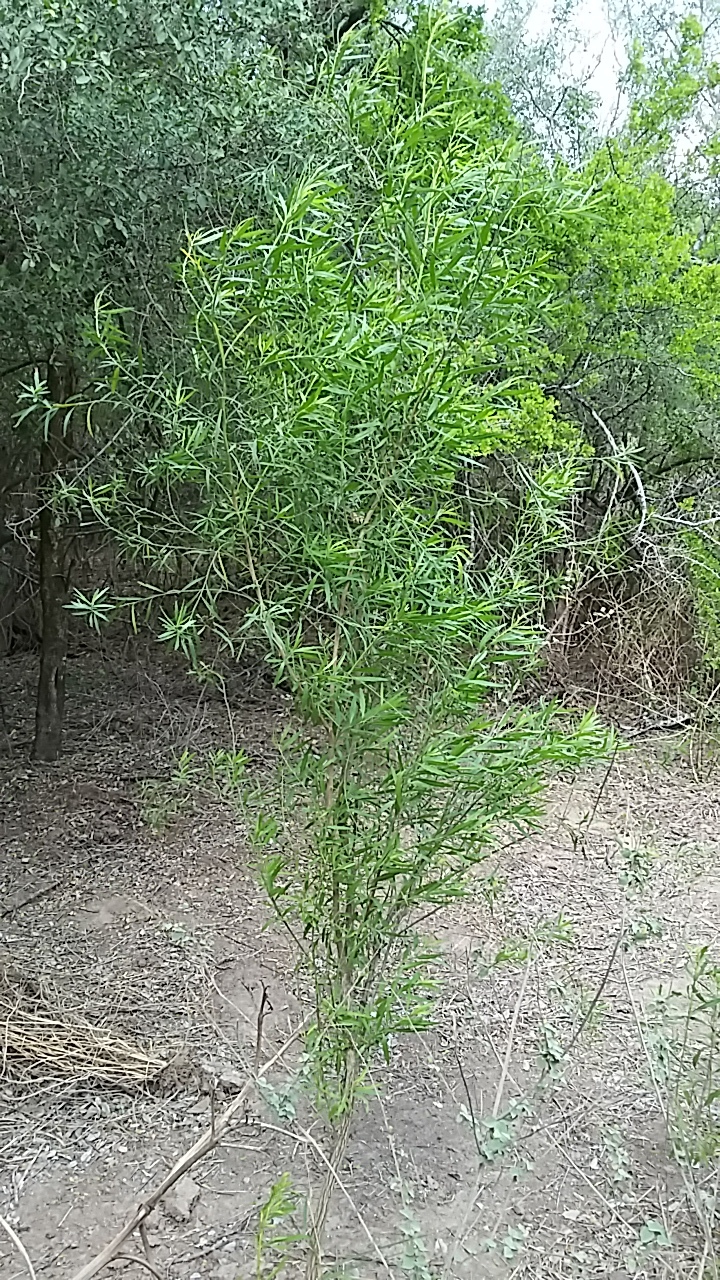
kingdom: Plantae
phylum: Tracheophyta
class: Magnoliopsida
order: Asterales
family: Asteraceae
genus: Baccharis
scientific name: Baccharis neglecta
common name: Roosevelt-weed
